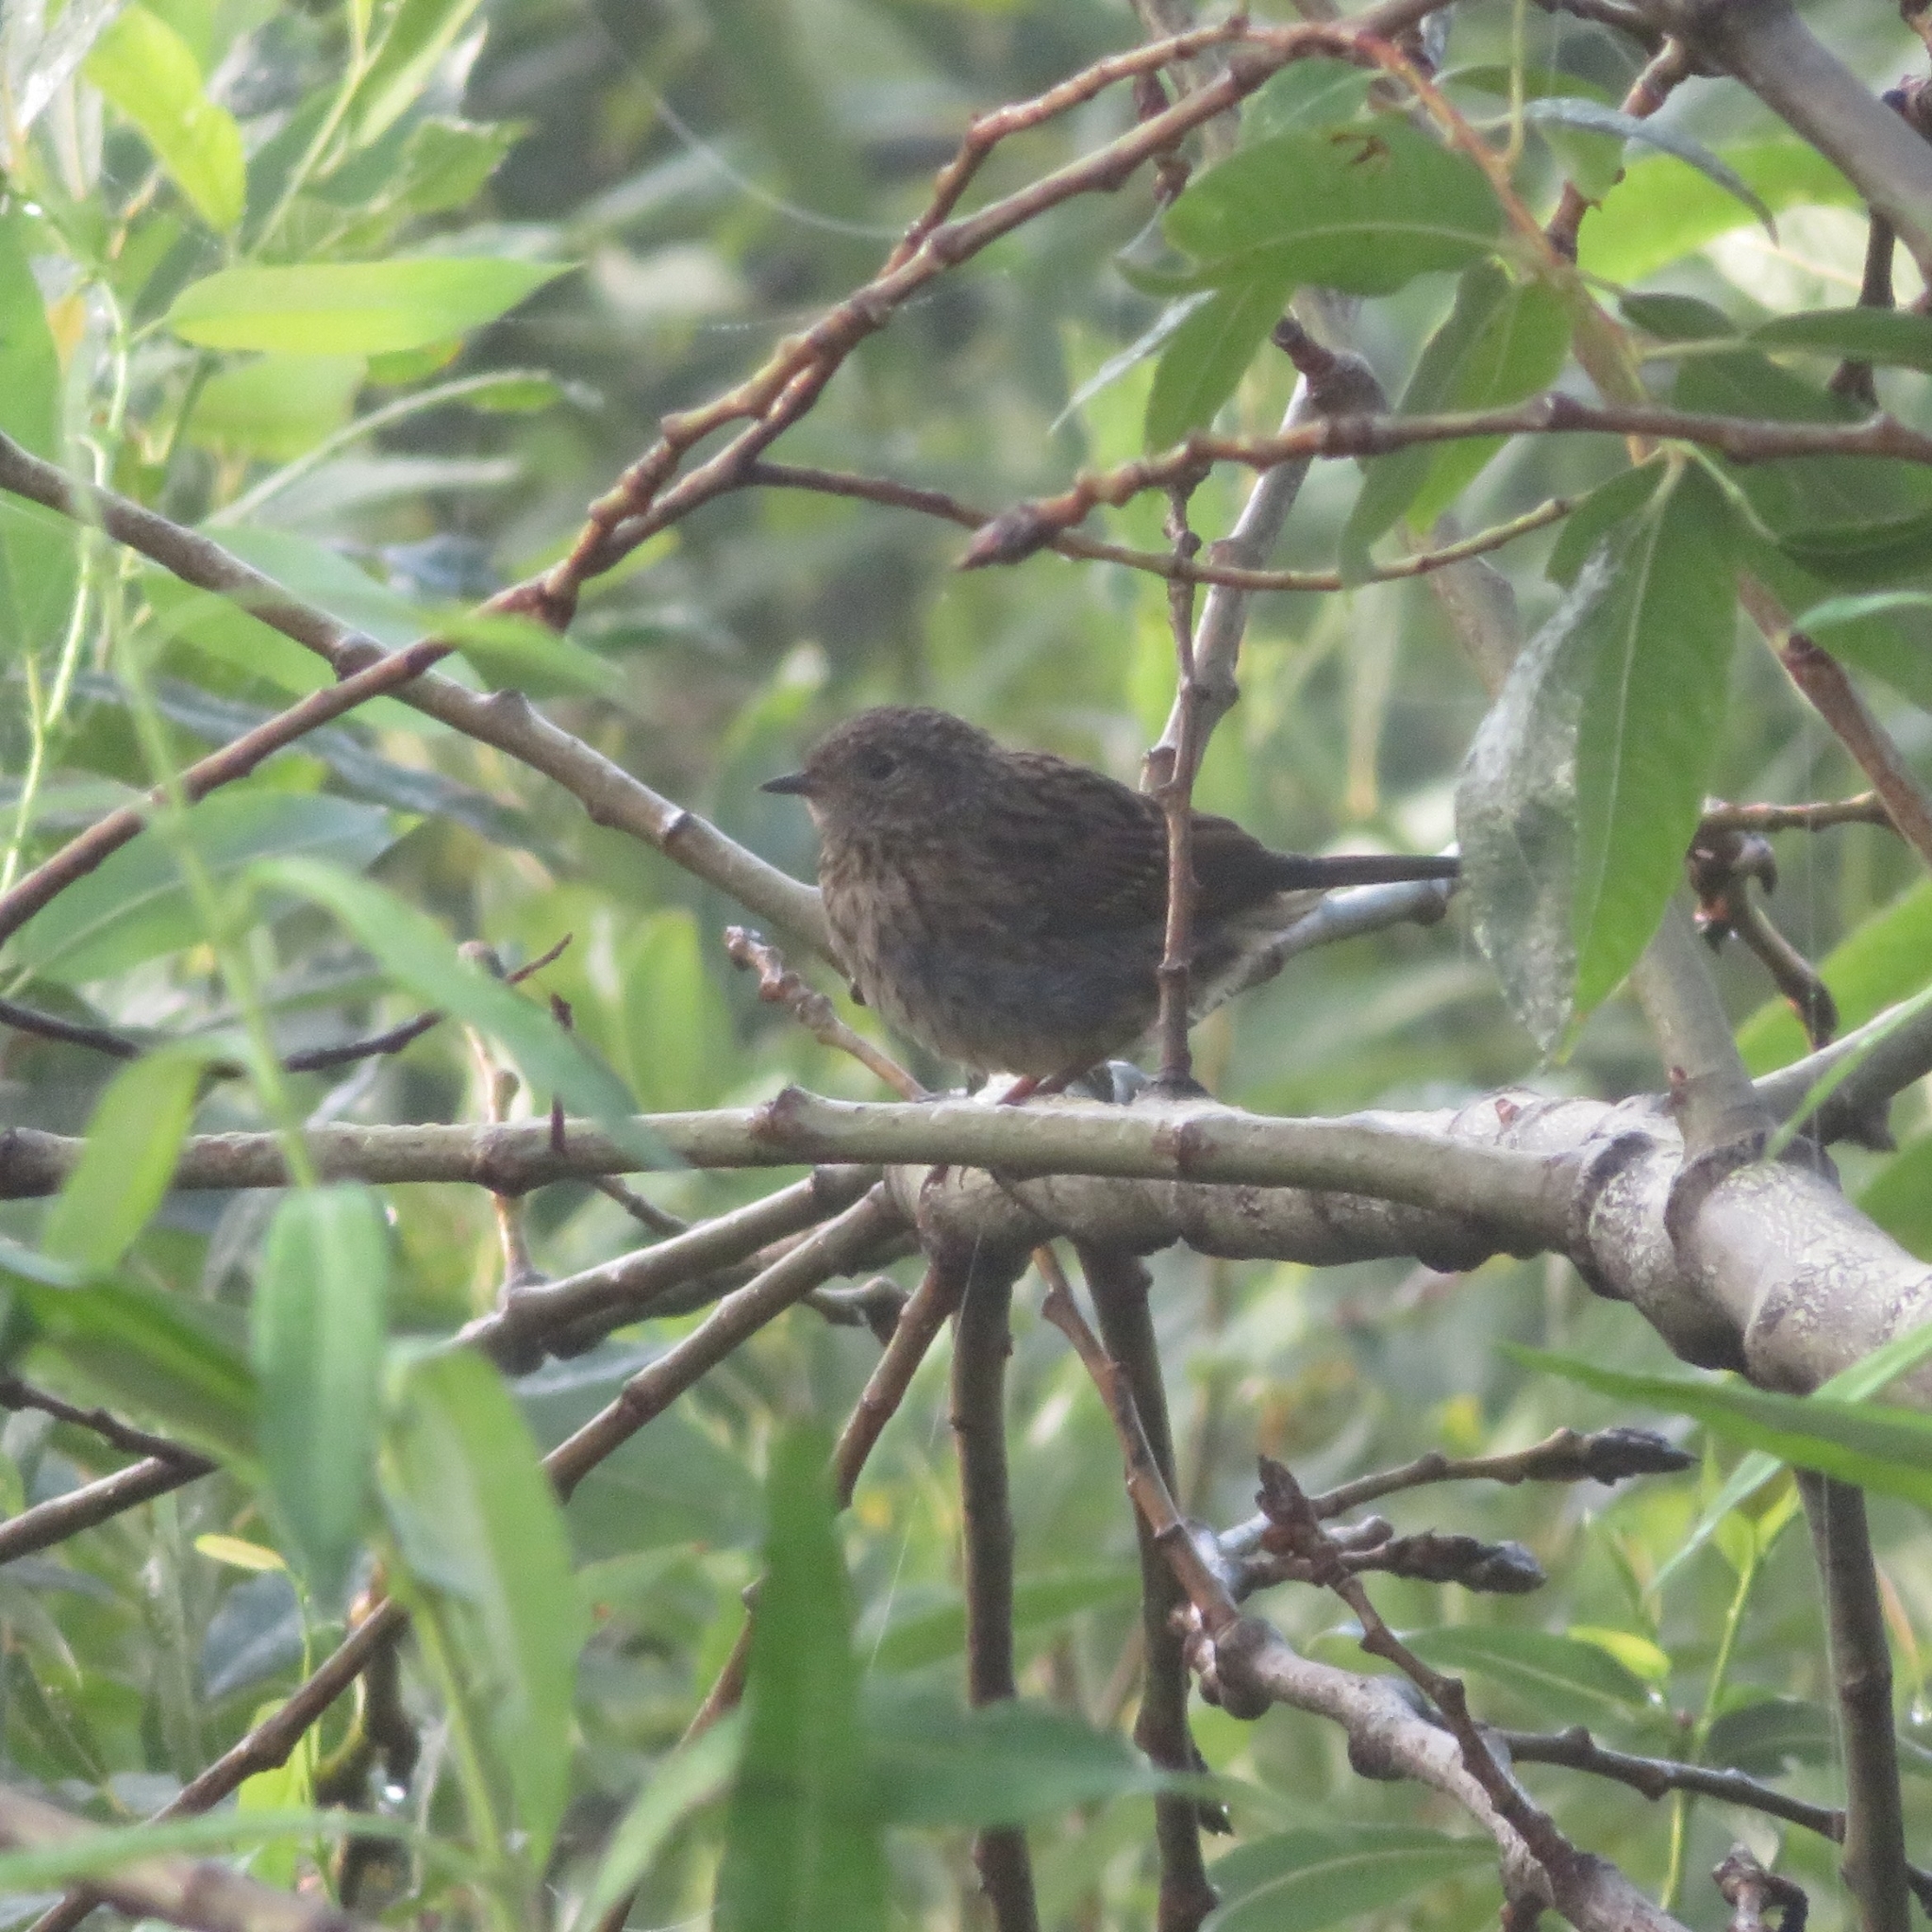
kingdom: Animalia
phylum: Chordata
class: Aves
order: Passeriformes
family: Prunellidae
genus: Prunella
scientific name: Prunella modularis
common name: Dunnock
